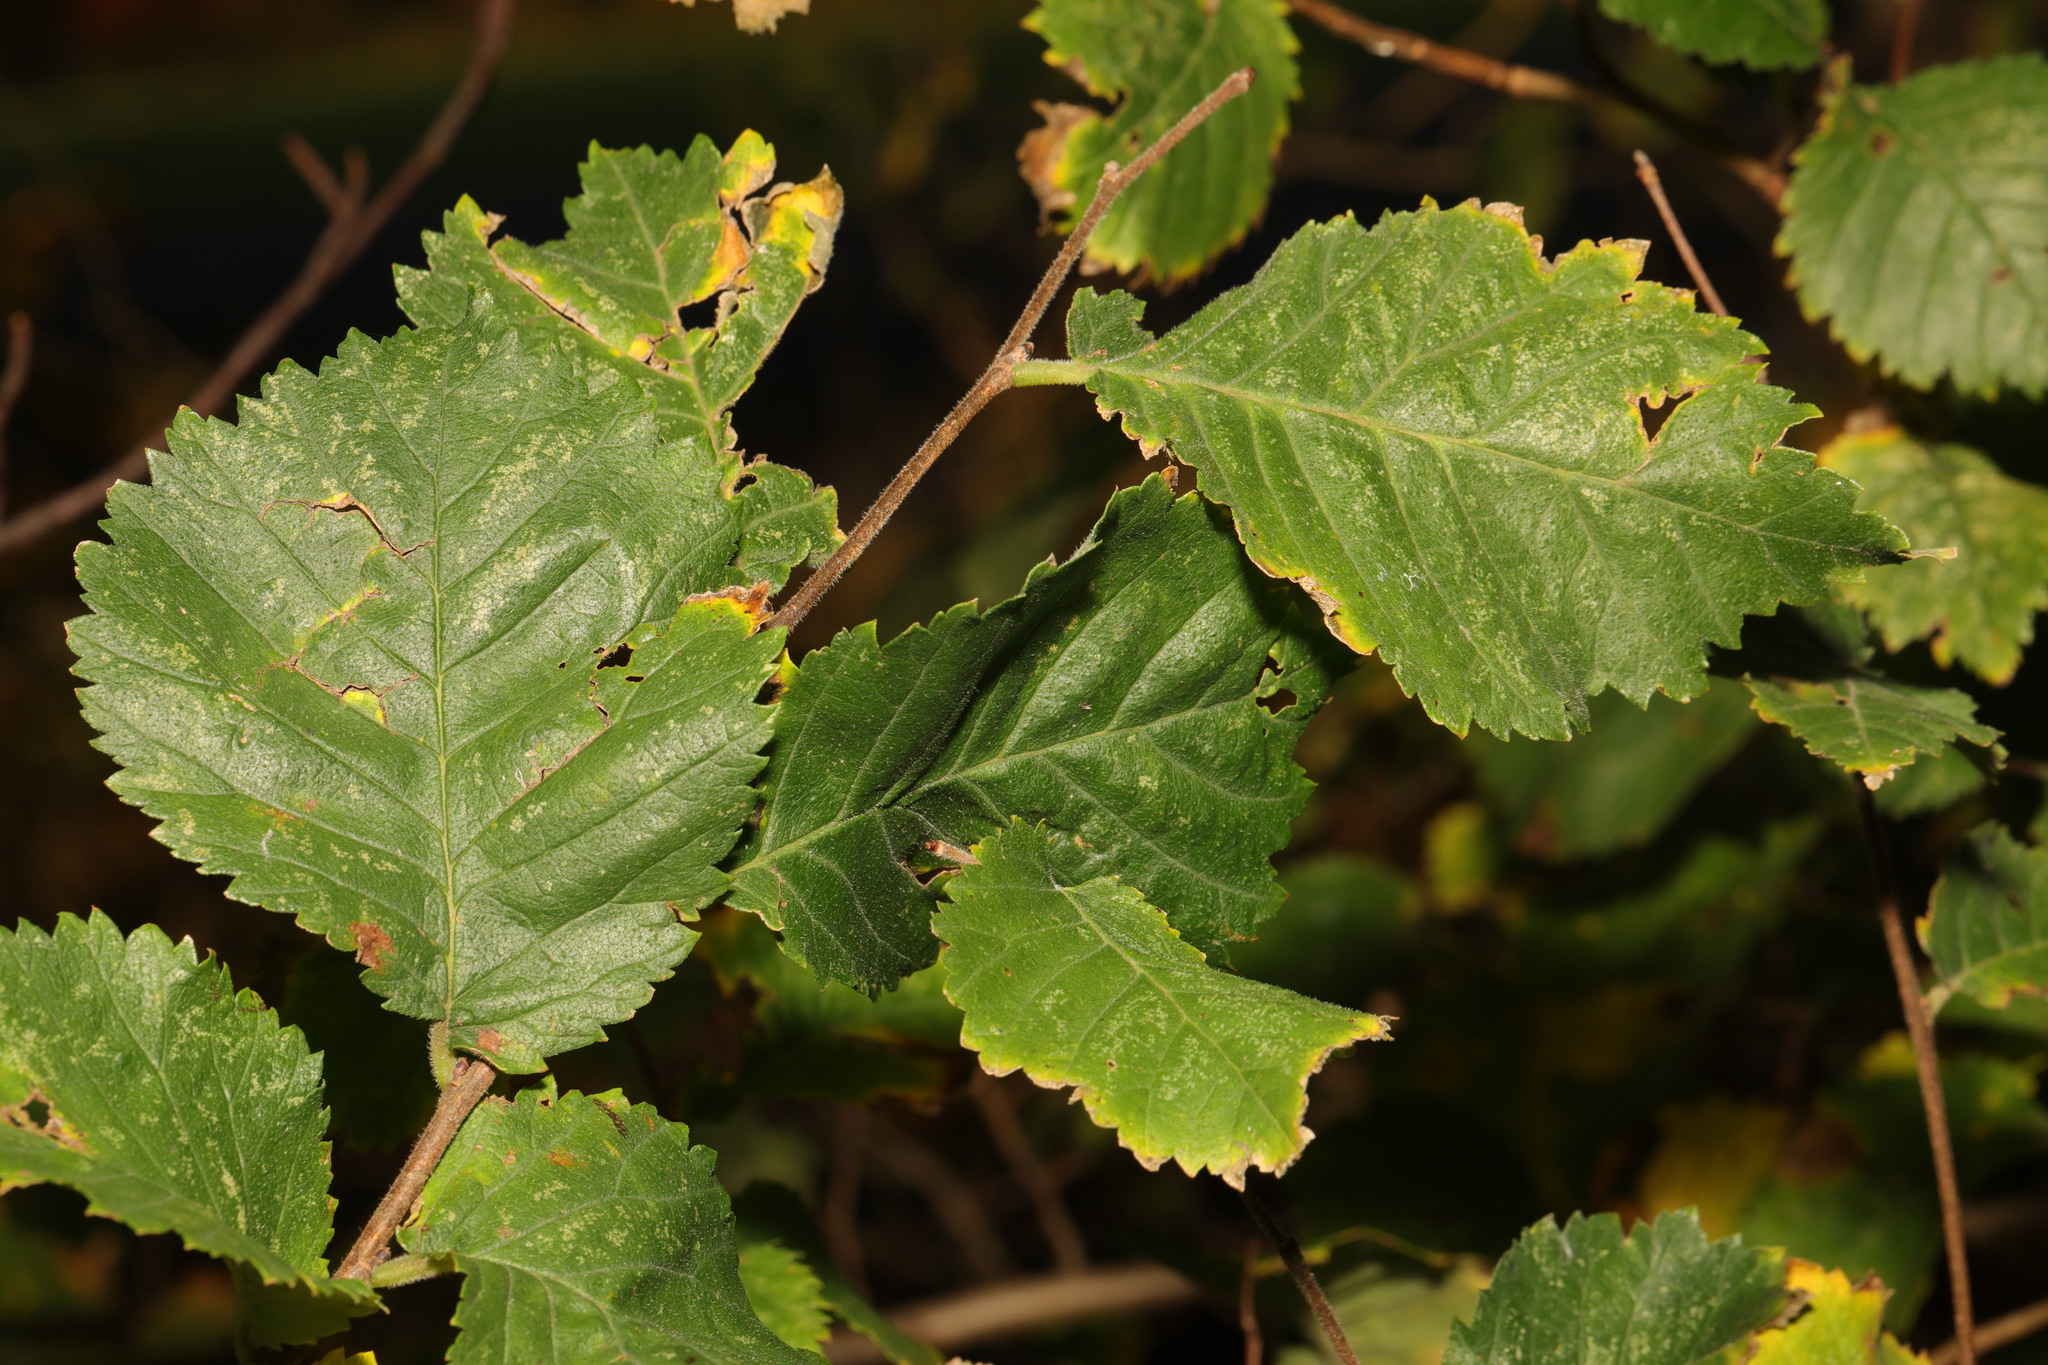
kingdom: Plantae
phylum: Tracheophyta
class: Magnoliopsida
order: Rosales
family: Ulmaceae
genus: Ulmus
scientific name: Ulmus minor
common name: Small-leaved elm
